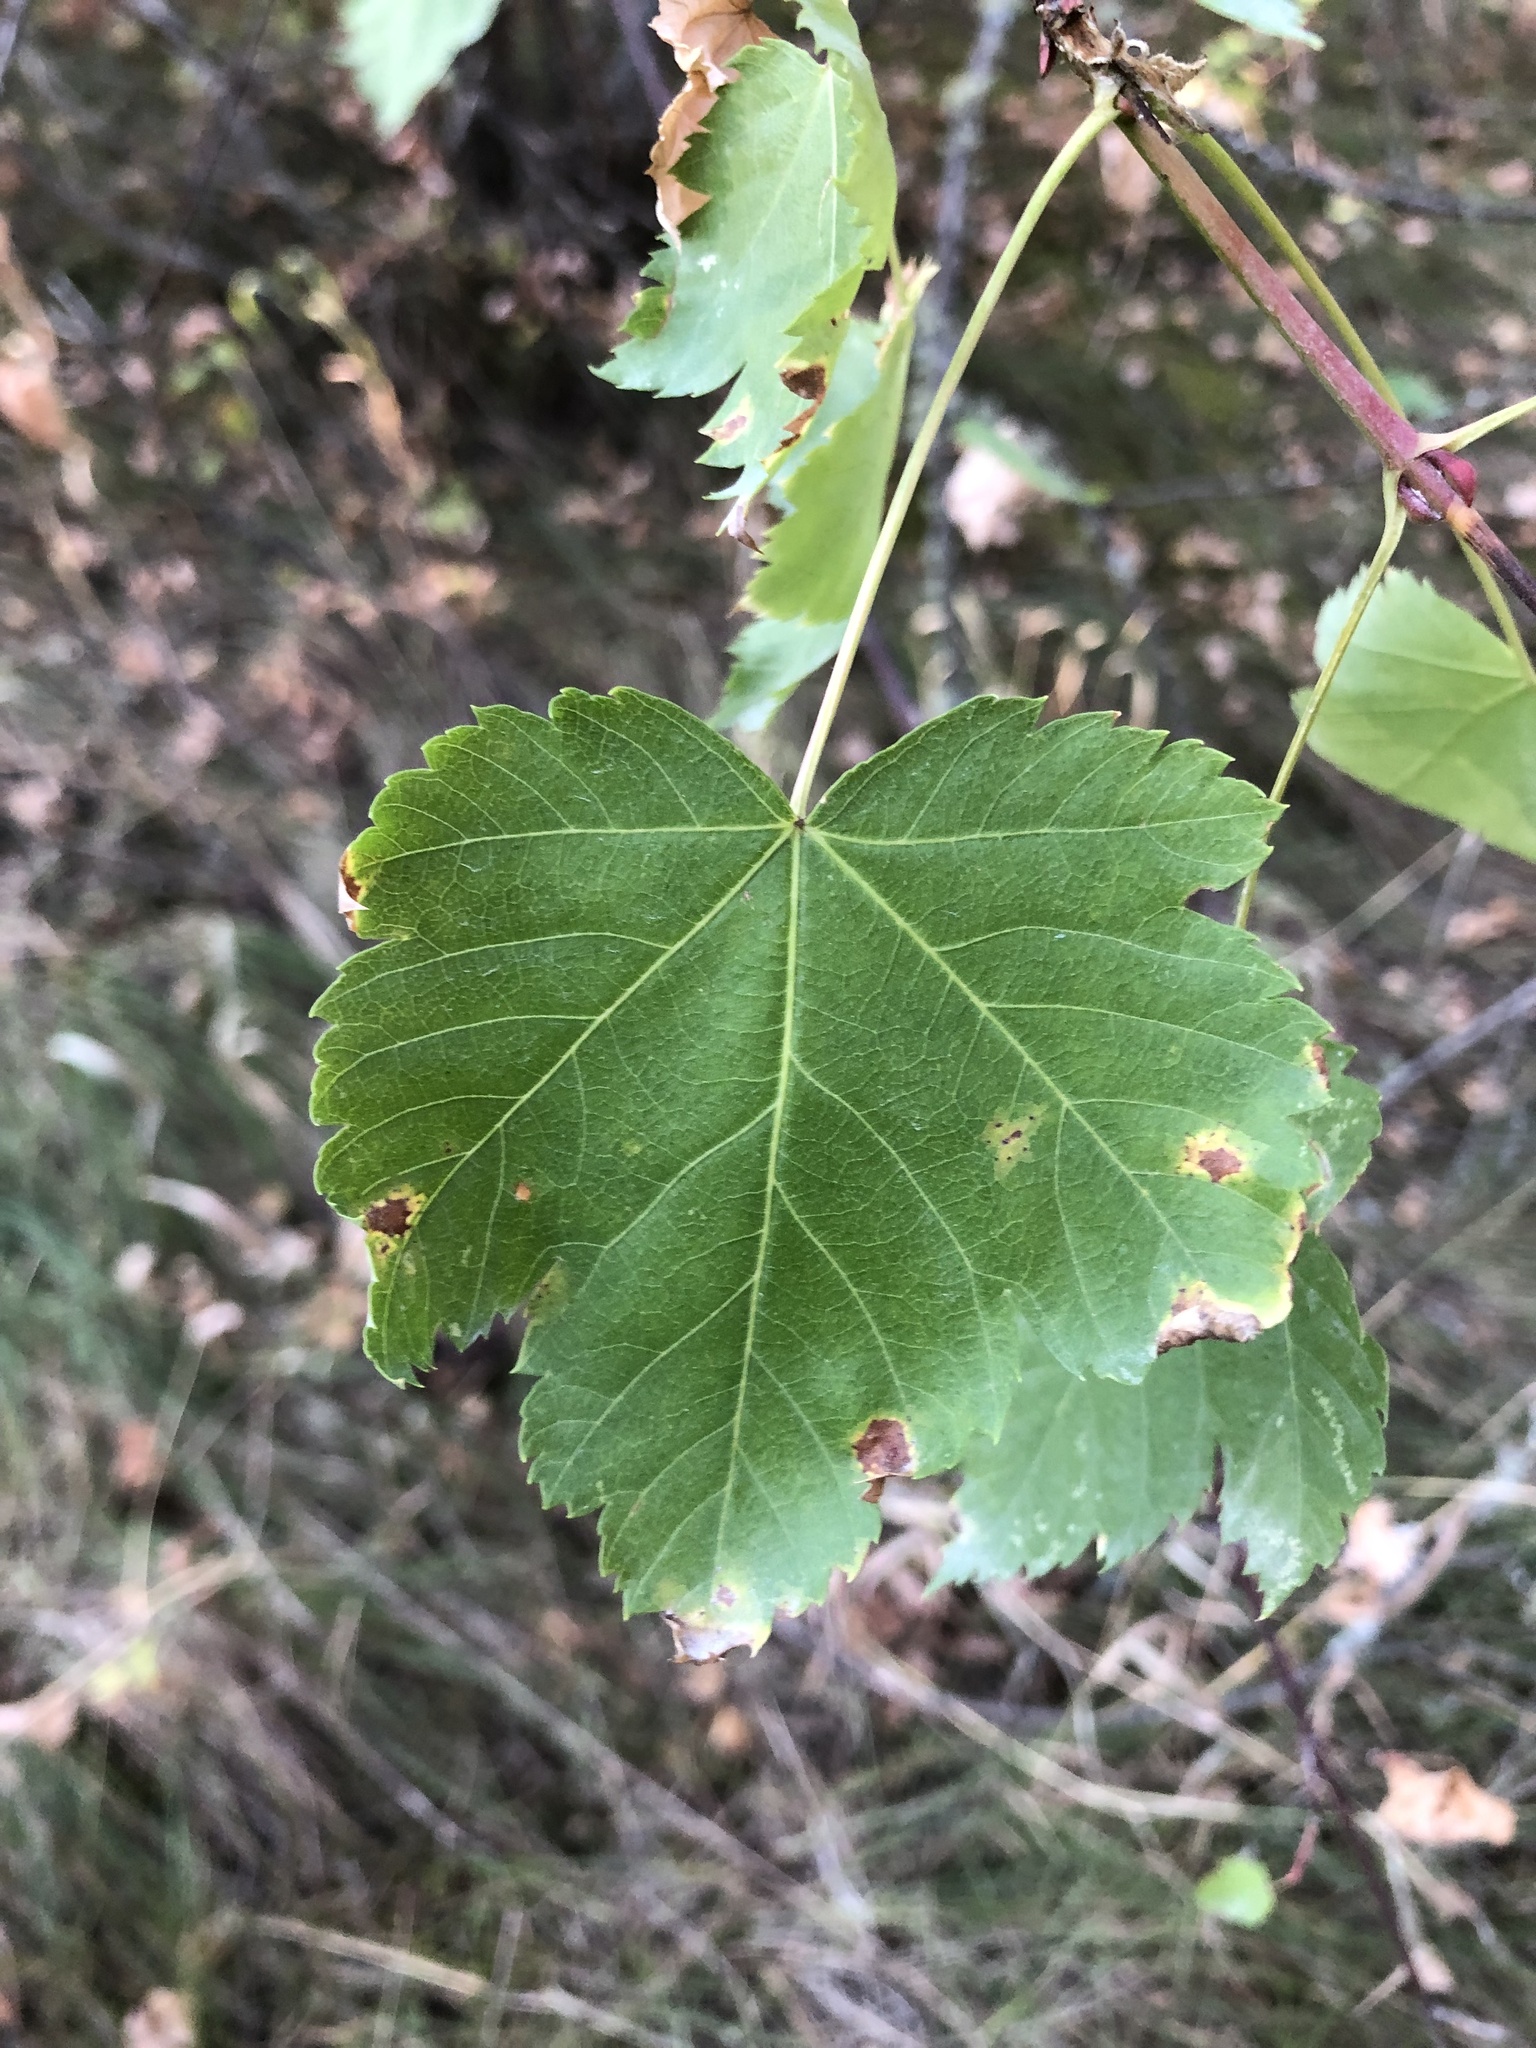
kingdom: Plantae
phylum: Tracheophyta
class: Magnoliopsida
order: Sapindales
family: Sapindaceae
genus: Acer
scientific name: Acer glabrum
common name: Rocky mountain maple
